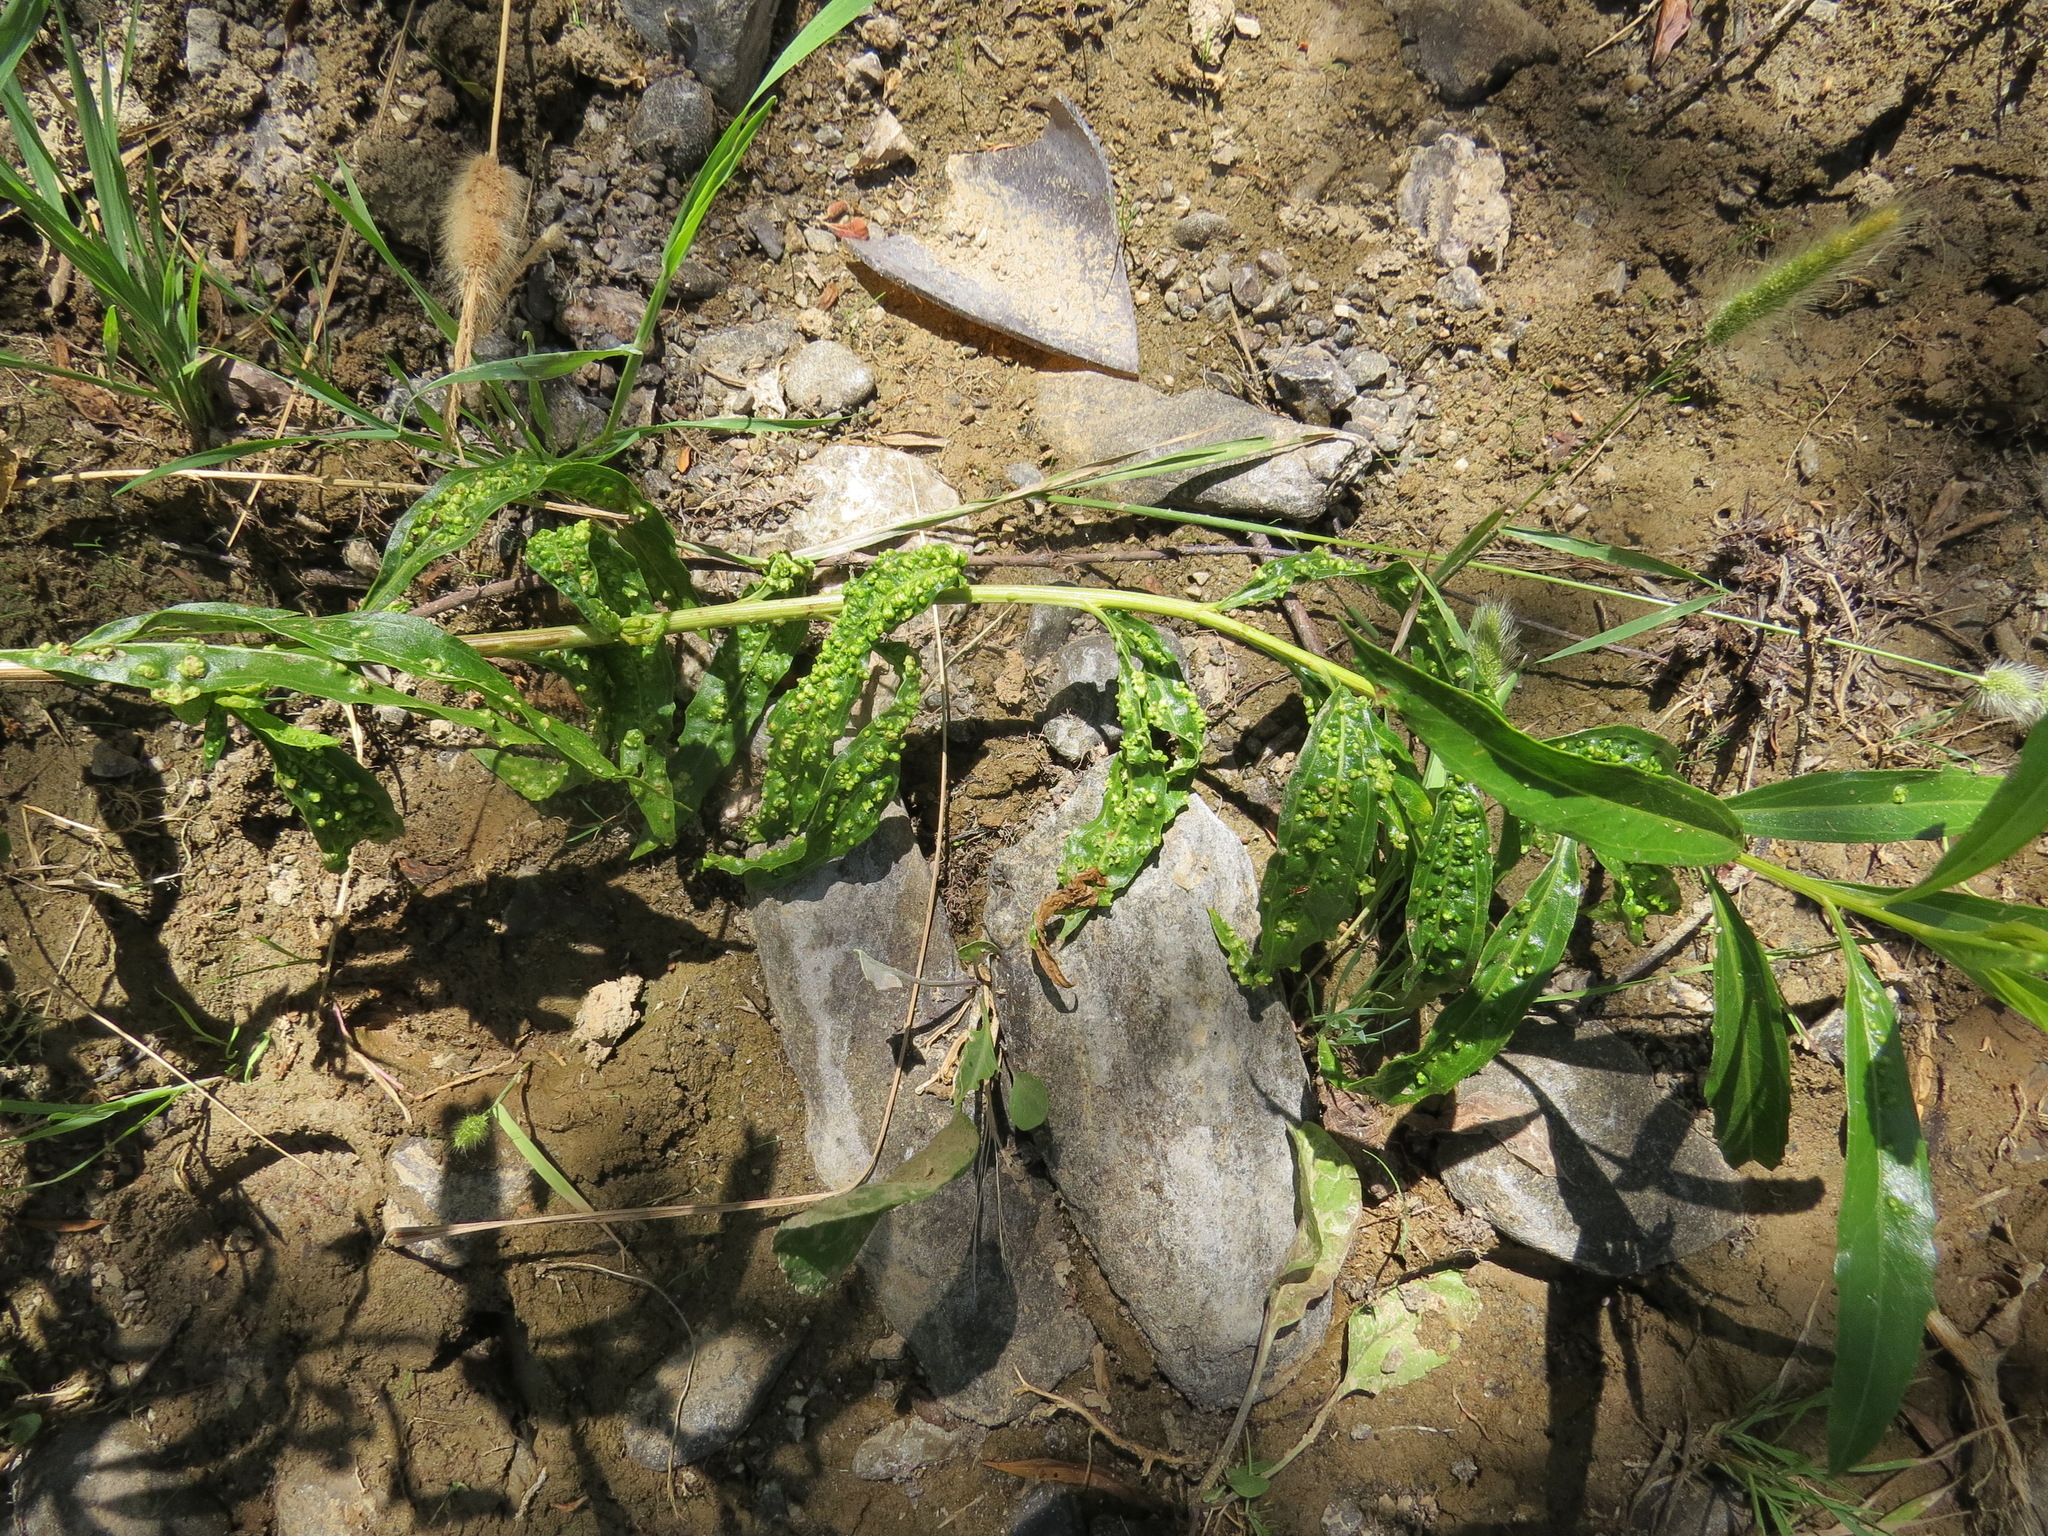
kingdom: Animalia
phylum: Arthropoda
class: Arachnida
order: Trombidiformes
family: Eriophyidae
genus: Aceria
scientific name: Aceria
